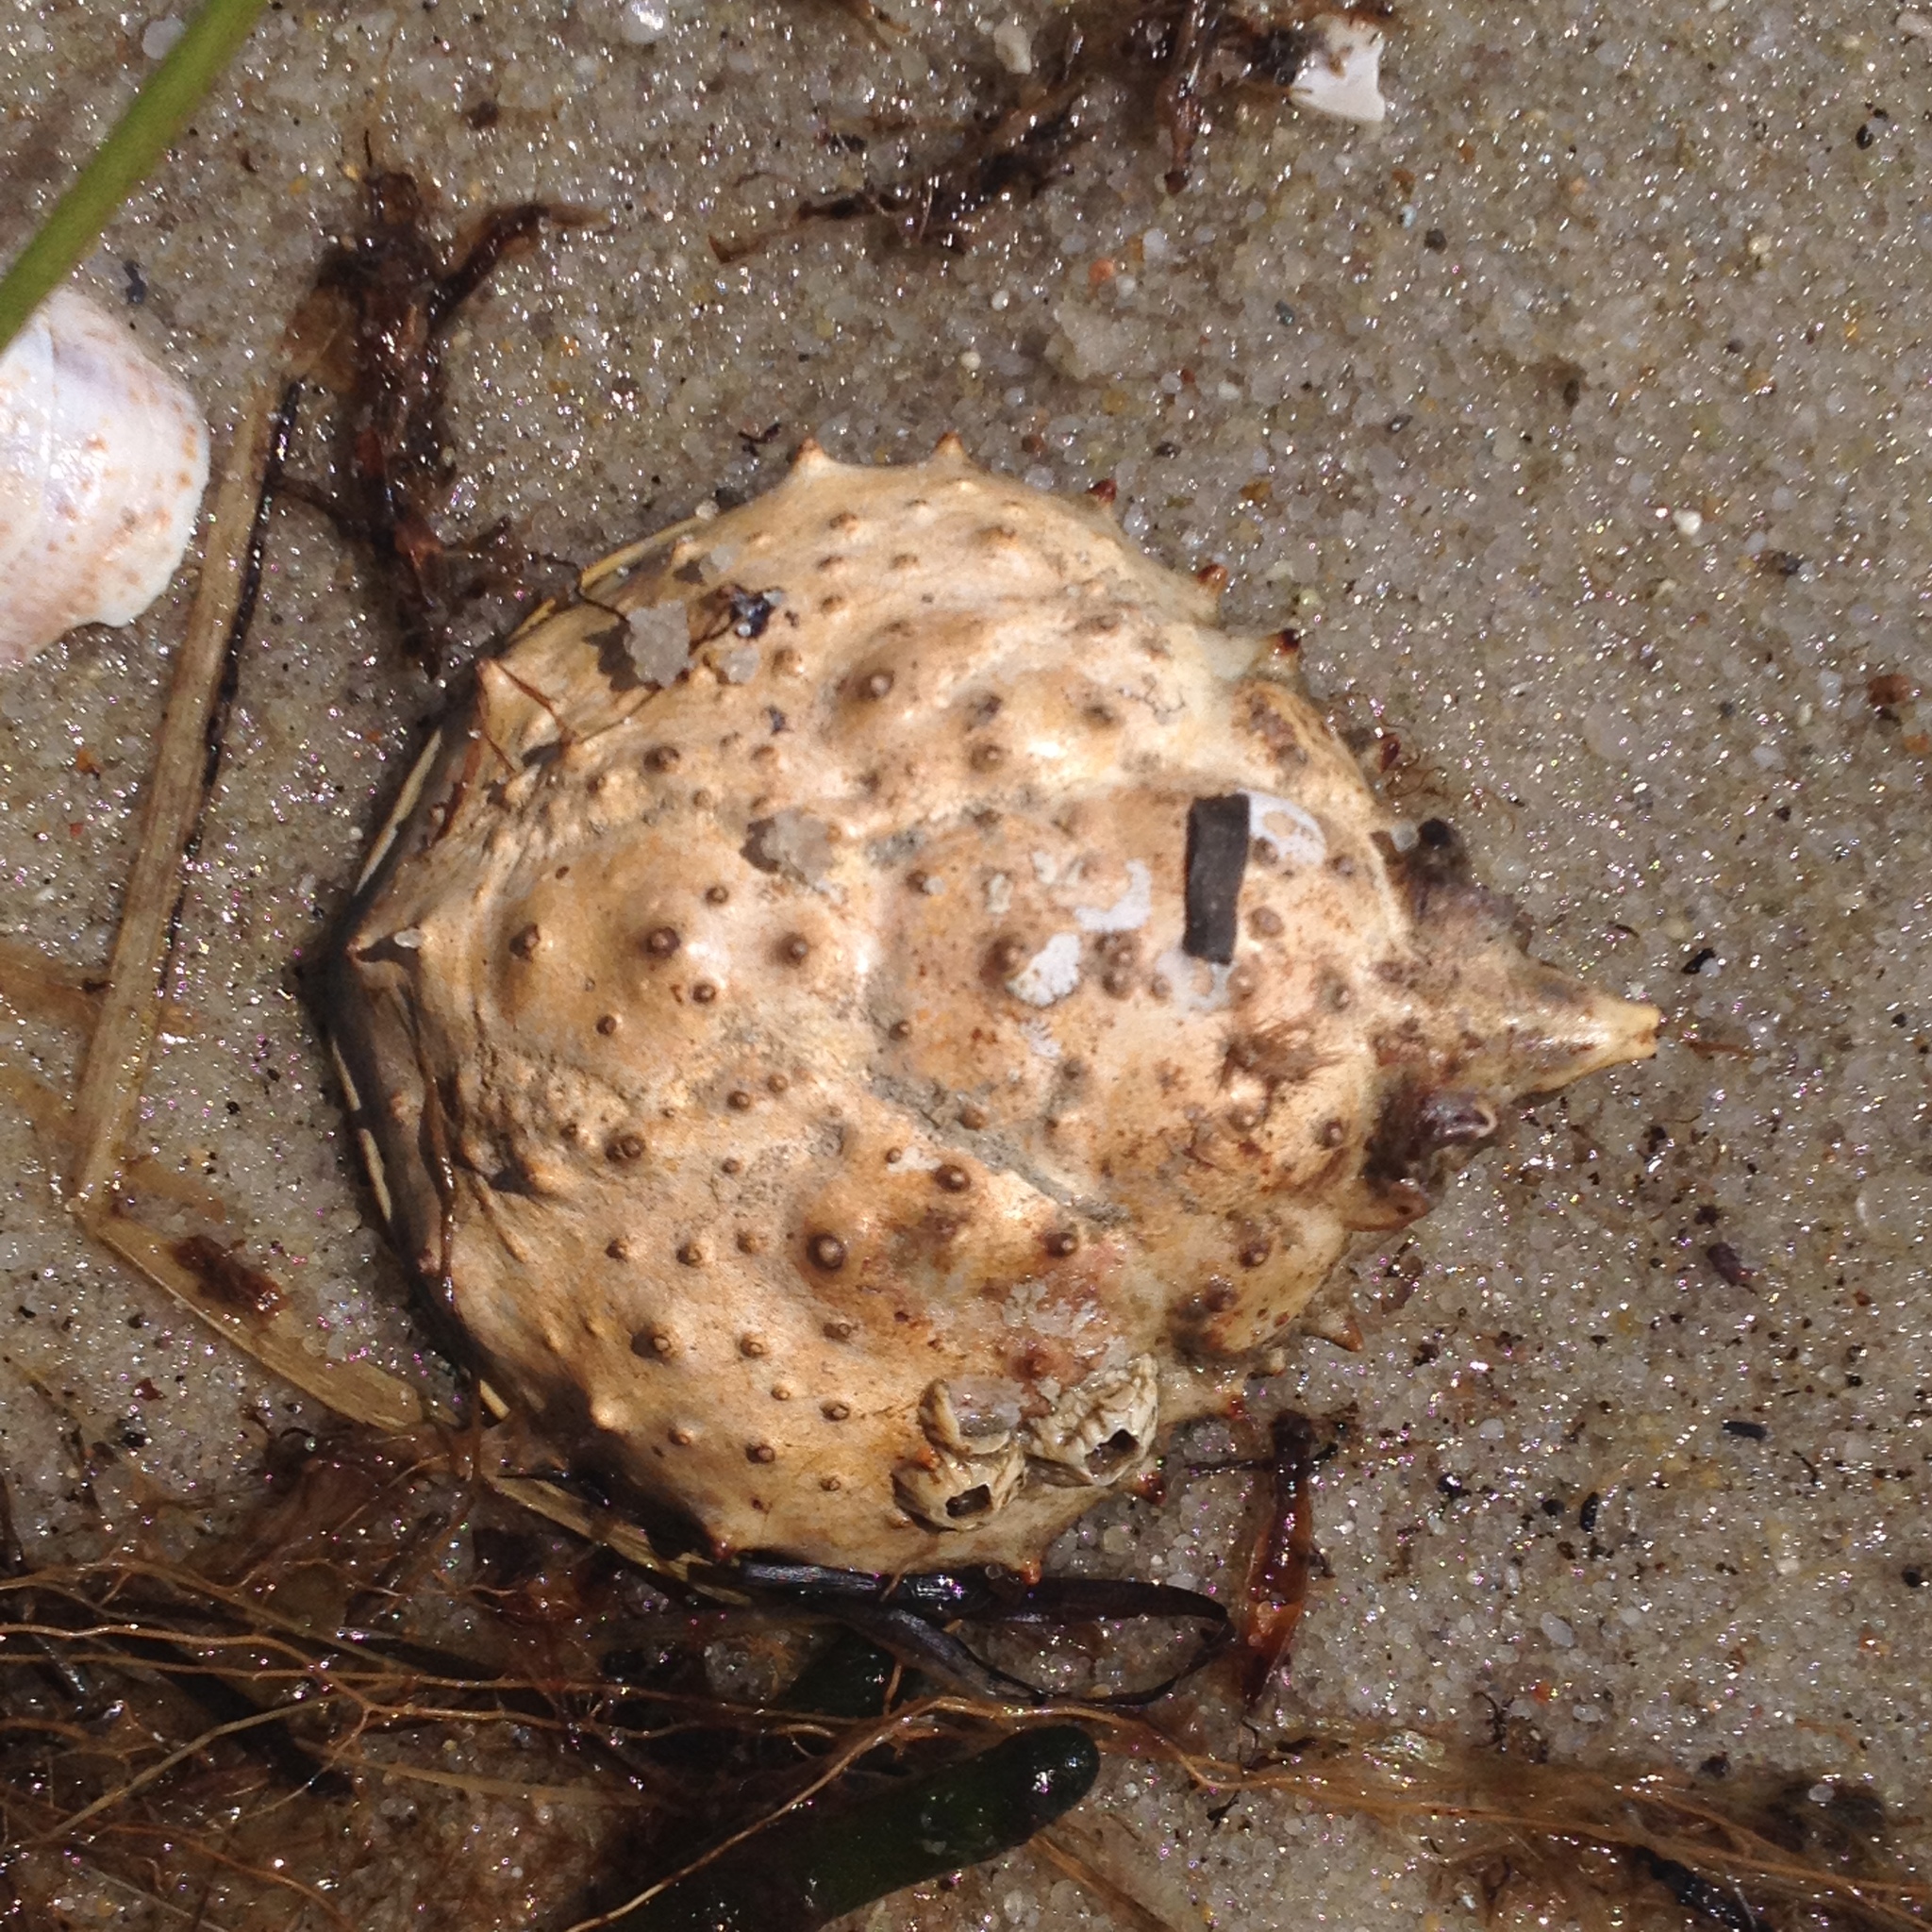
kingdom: Animalia
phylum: Arthropoda
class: Malacostraca
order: Decapoda
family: Epialtidae
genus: Libinia
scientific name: Libinia emarginata
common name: Common spider crab
